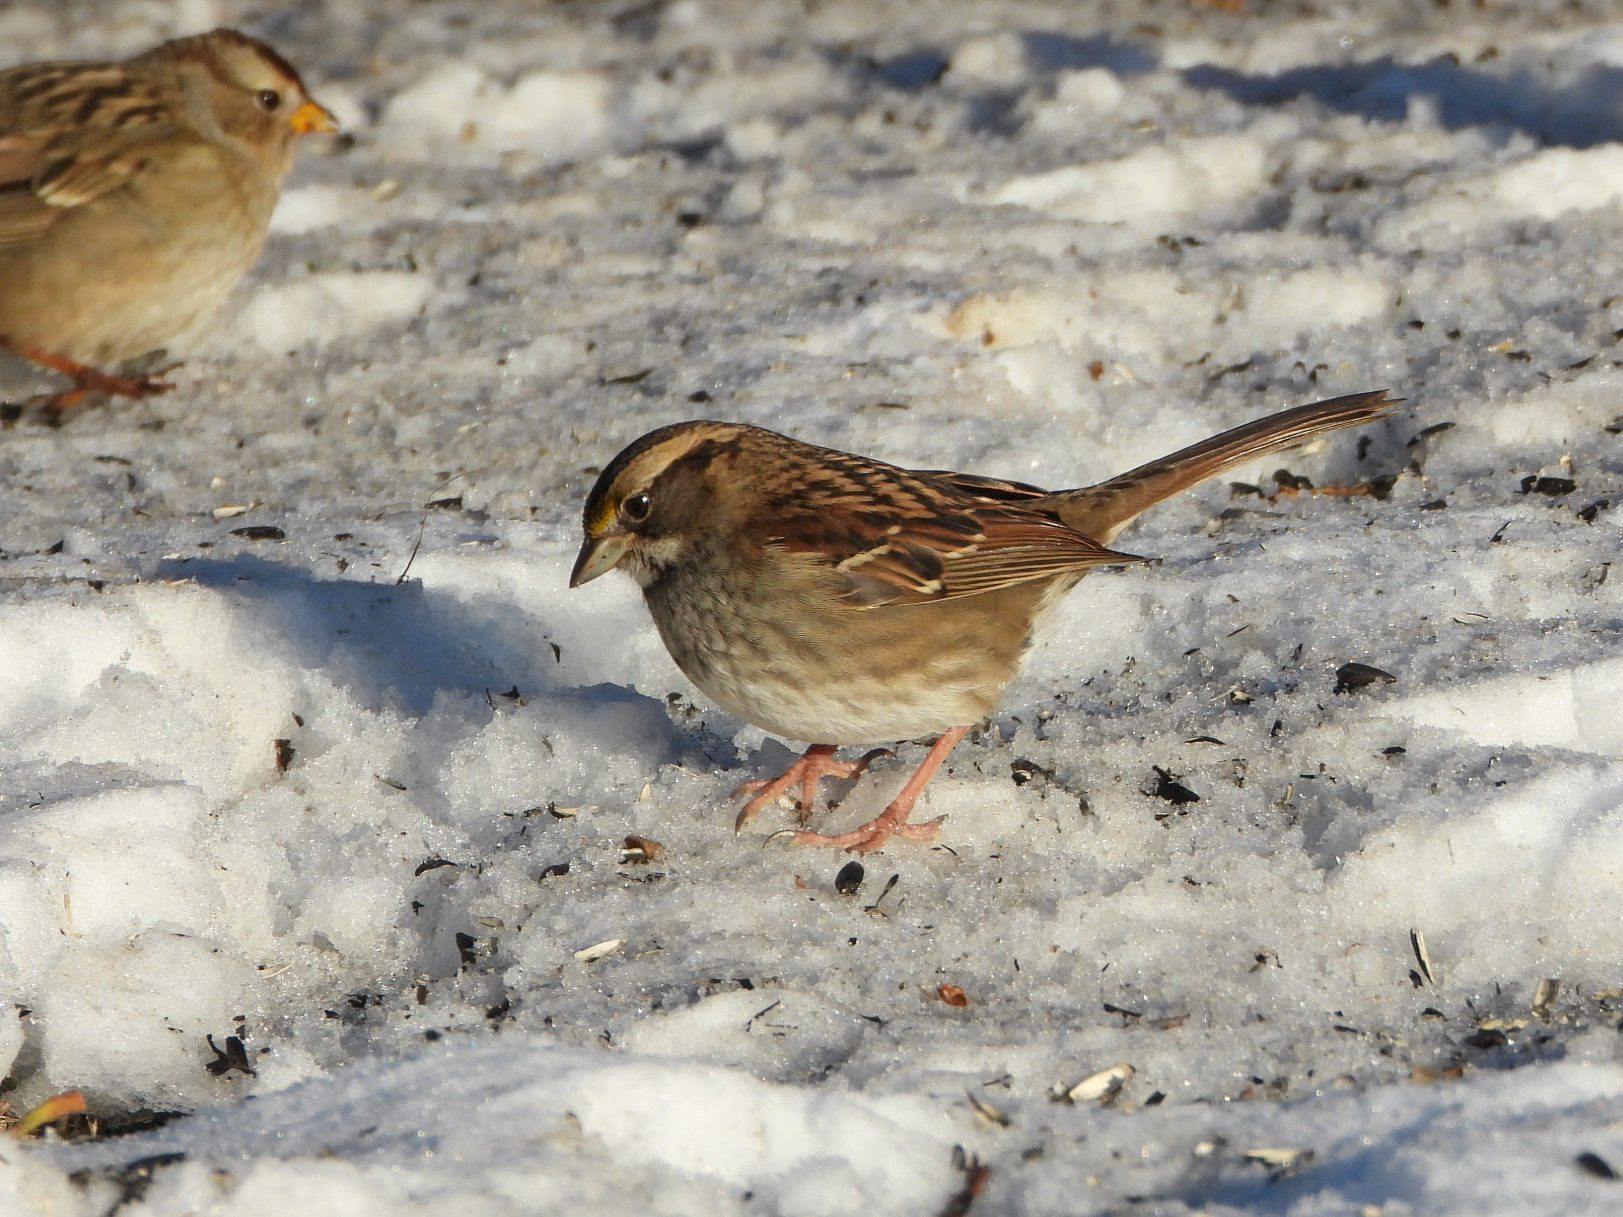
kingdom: Animalia
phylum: Chordata
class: Aves
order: Passeriformes
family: Passerellidae
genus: Zonotrichia
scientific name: Zonotrichia albicollis
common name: White-throated sparrow
